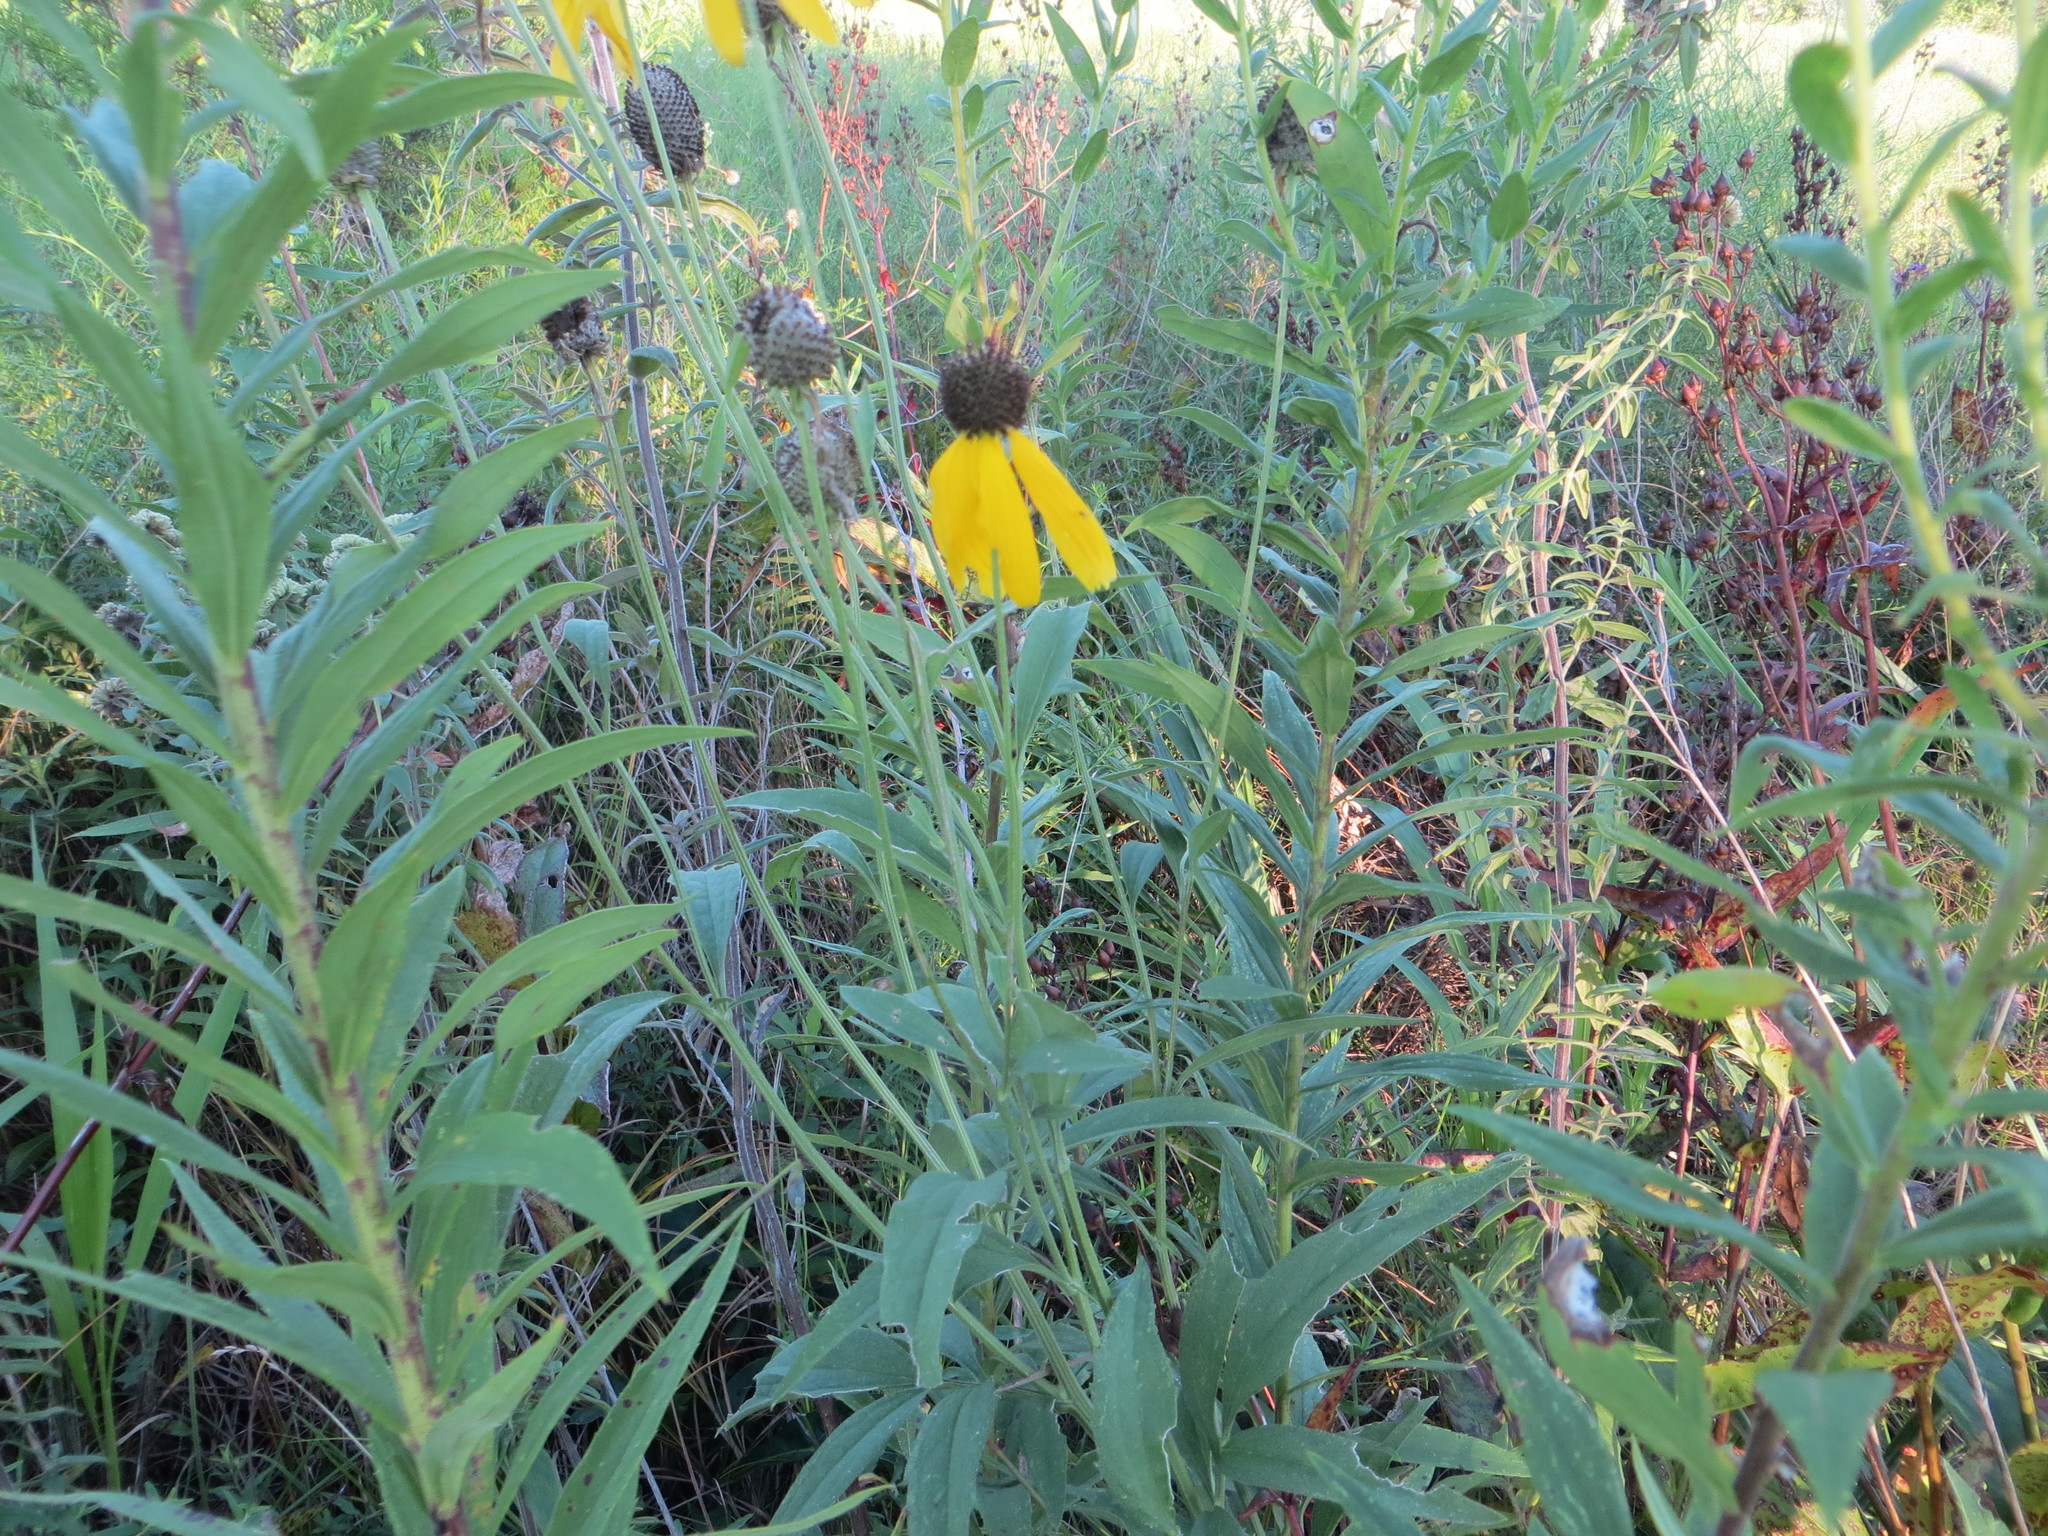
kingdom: Plantae
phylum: Tracheophyta
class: Magnoliopsida
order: Asterales
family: Asteraceae
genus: Ratibida
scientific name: Ratibida pinnata
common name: Drooping prairie-coneflower
